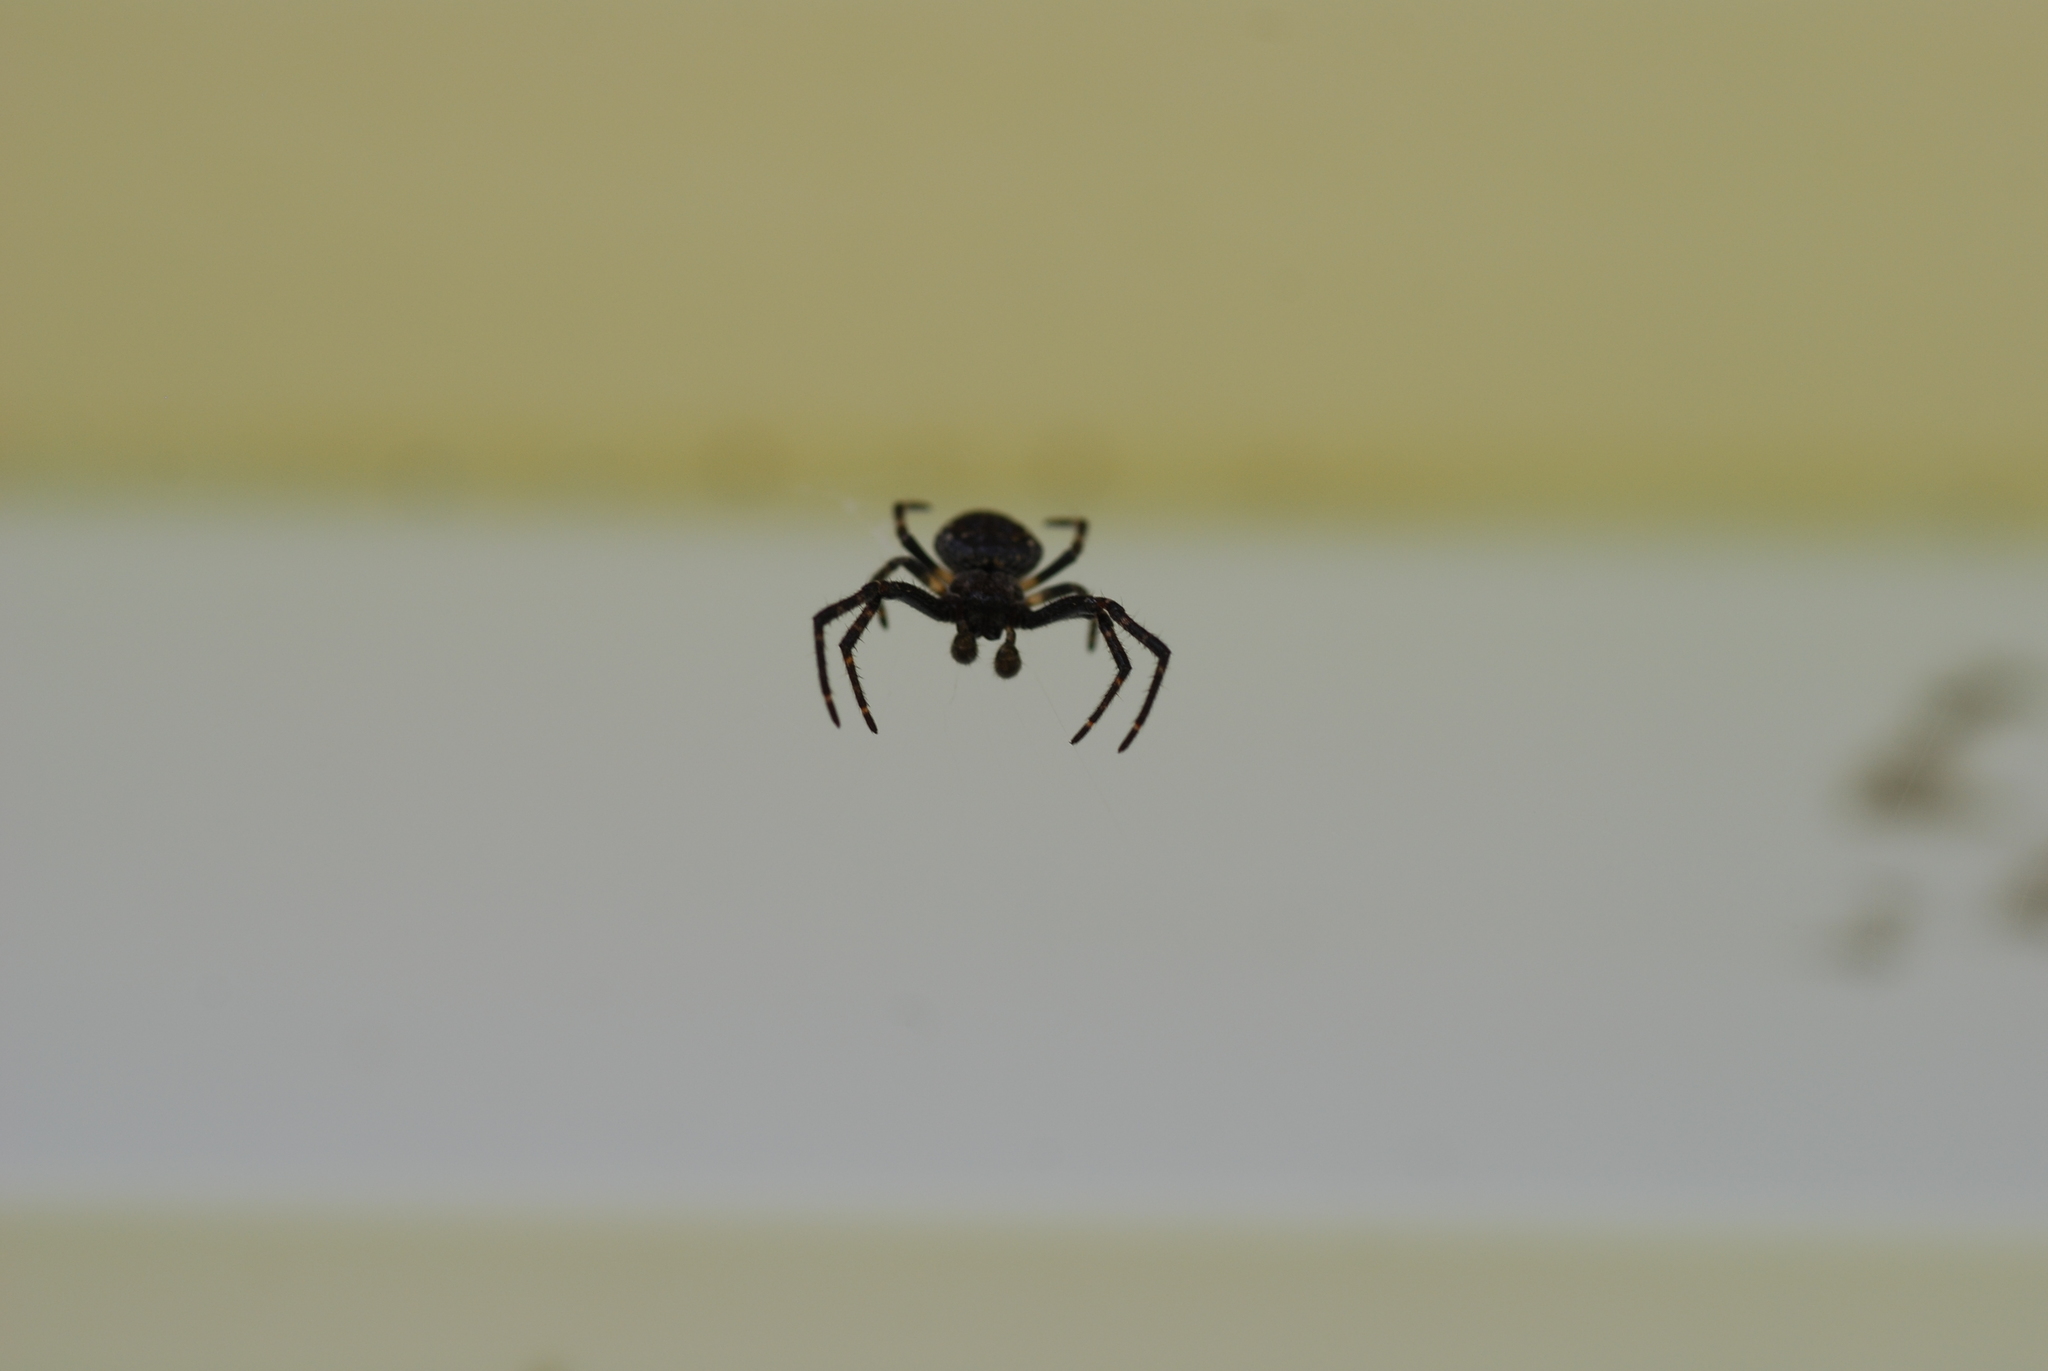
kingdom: Animalia
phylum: Arthropoda
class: Arachnida
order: Araneae
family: Araneidae
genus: Nuctenea
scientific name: Nuctenea umbratica
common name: Toad spider
